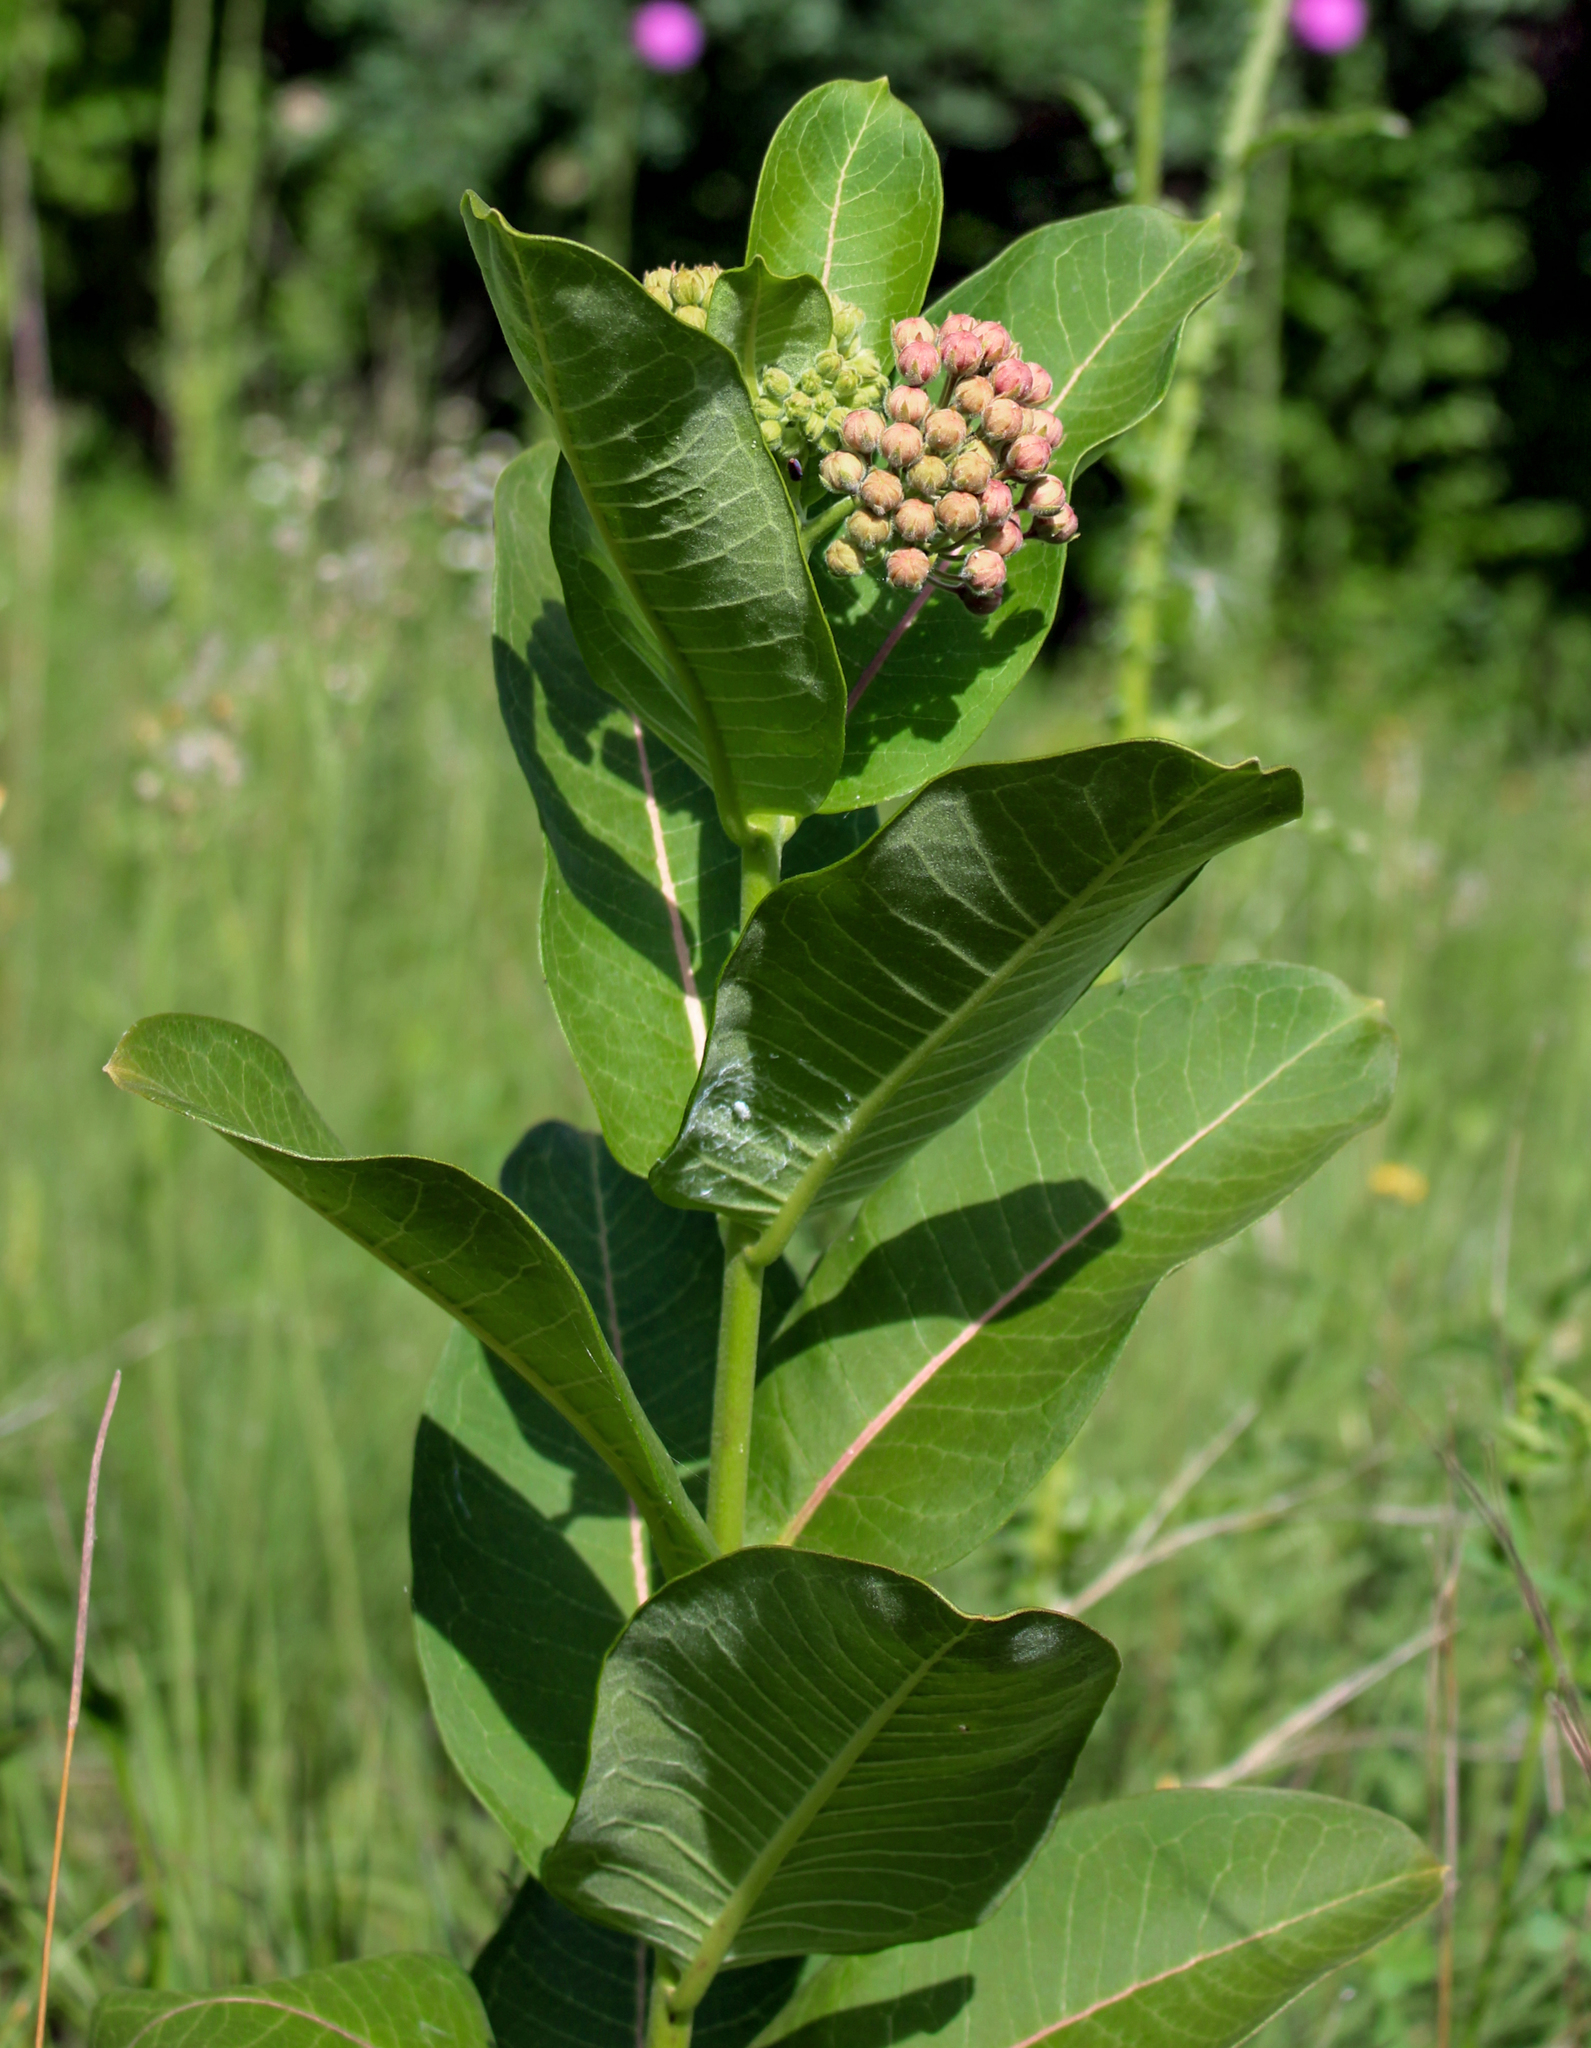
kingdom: Plantae
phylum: Tracheophyta
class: Magnoliopsida
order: Gentianales
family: Apocynaceae
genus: Asclepias
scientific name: Asclepias syriaca
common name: Common milkweed
